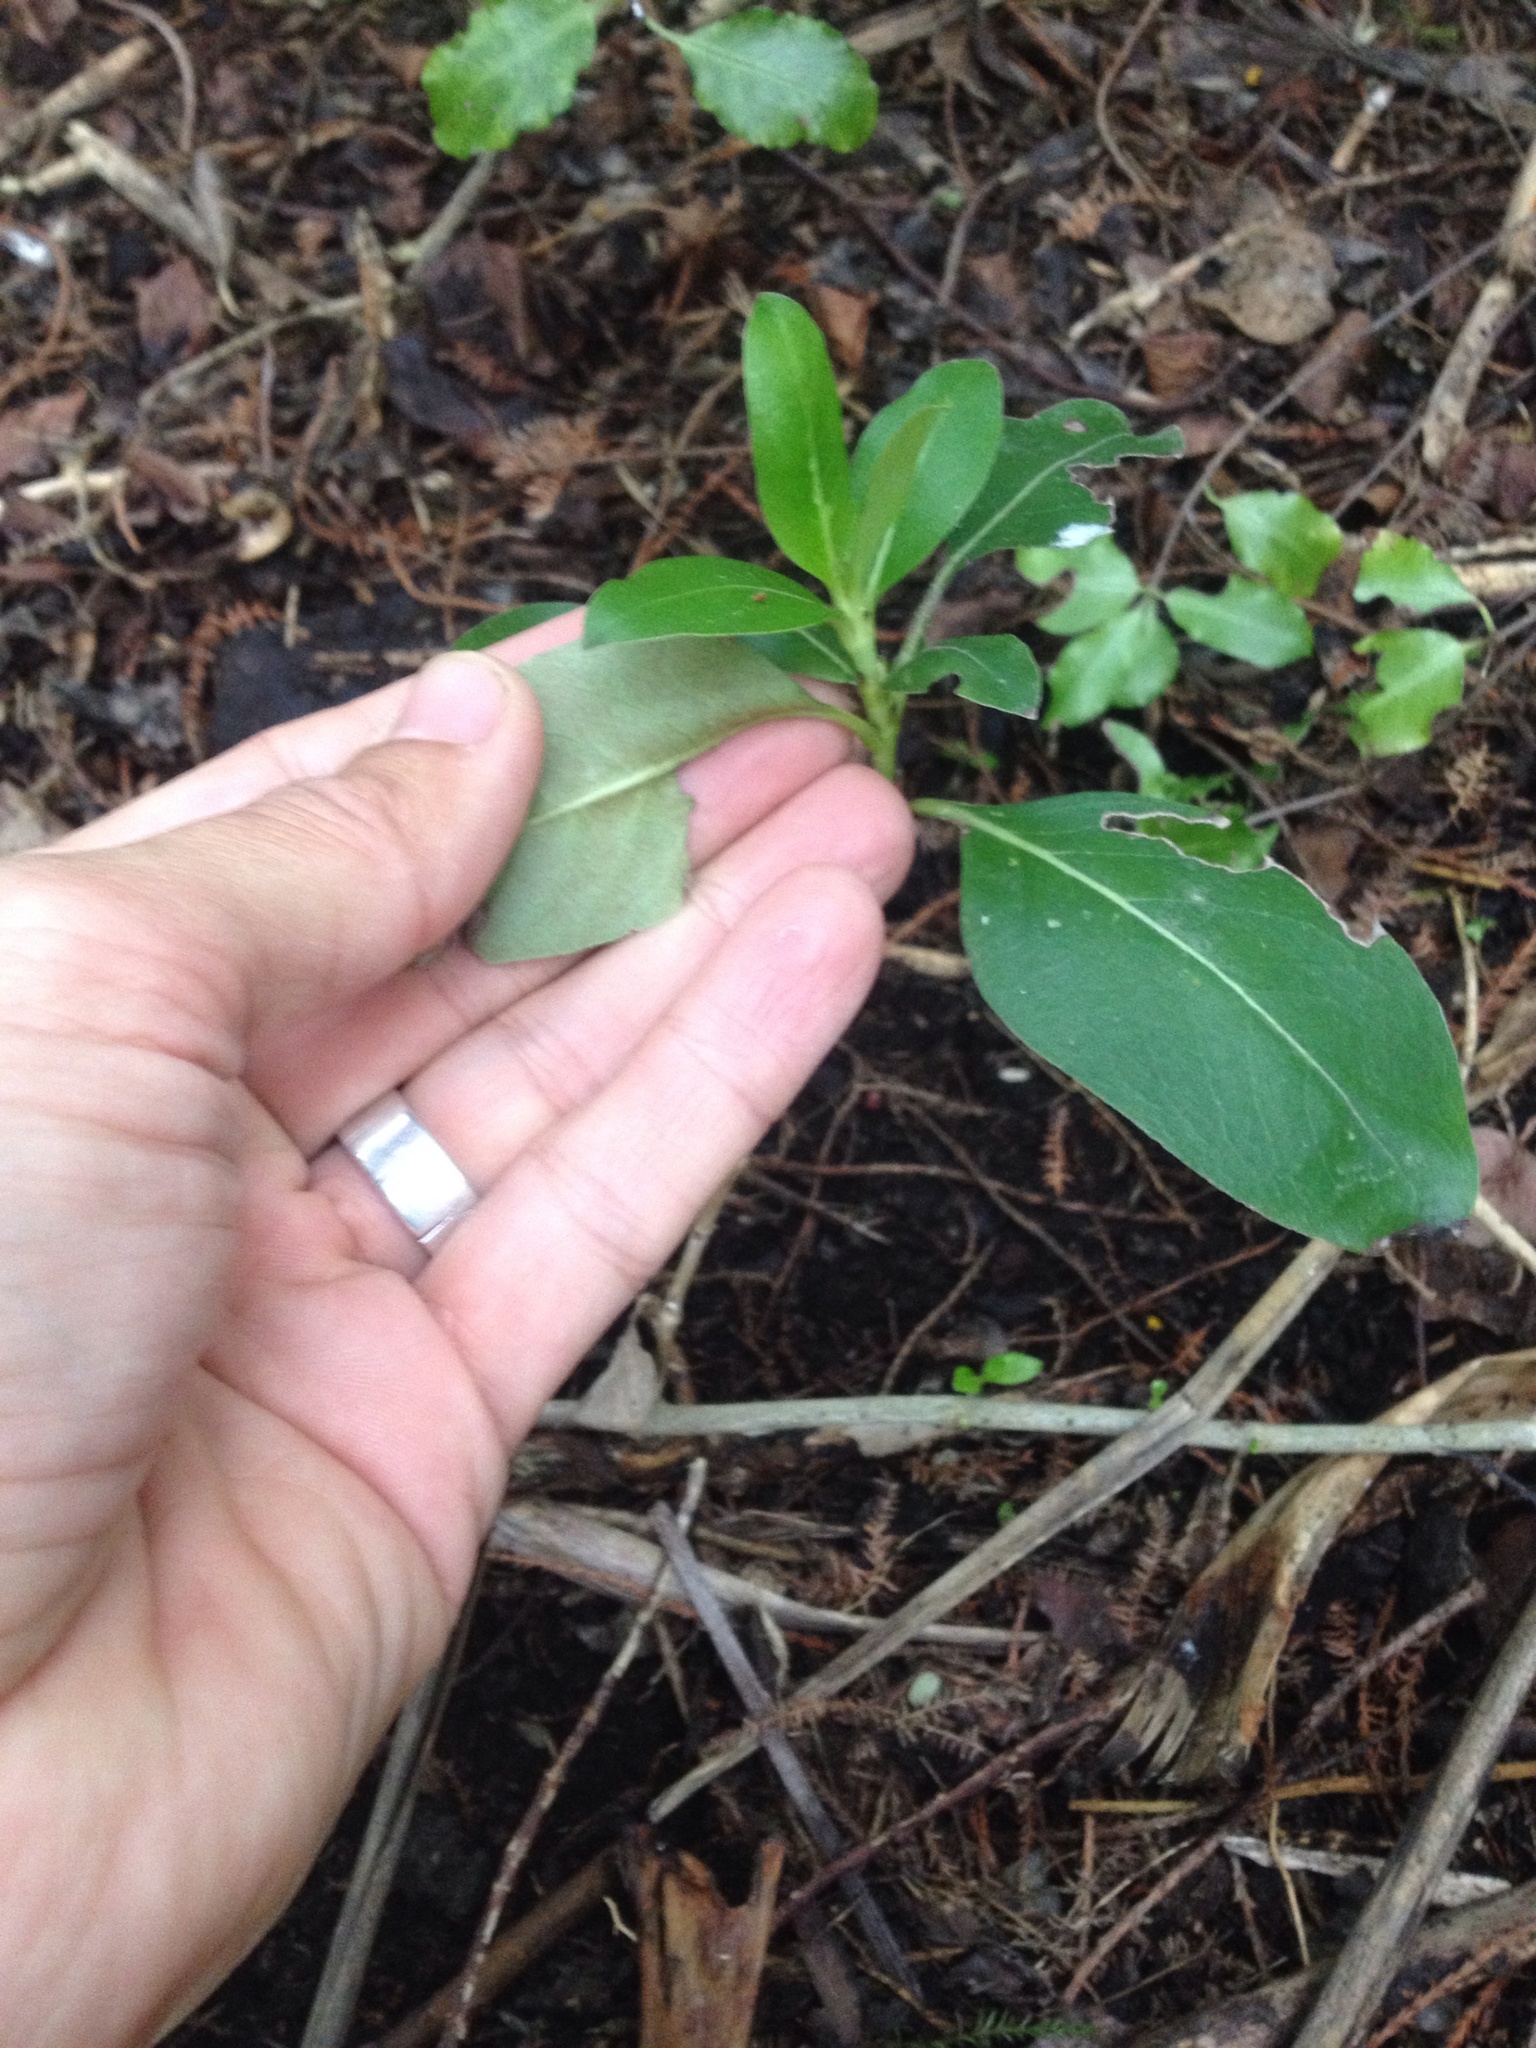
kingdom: Plantae
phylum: Tracheophyta
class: Magnoliopsida
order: Gentianales
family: Rubiaceae
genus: Coprosma
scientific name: Coprosma robusta
